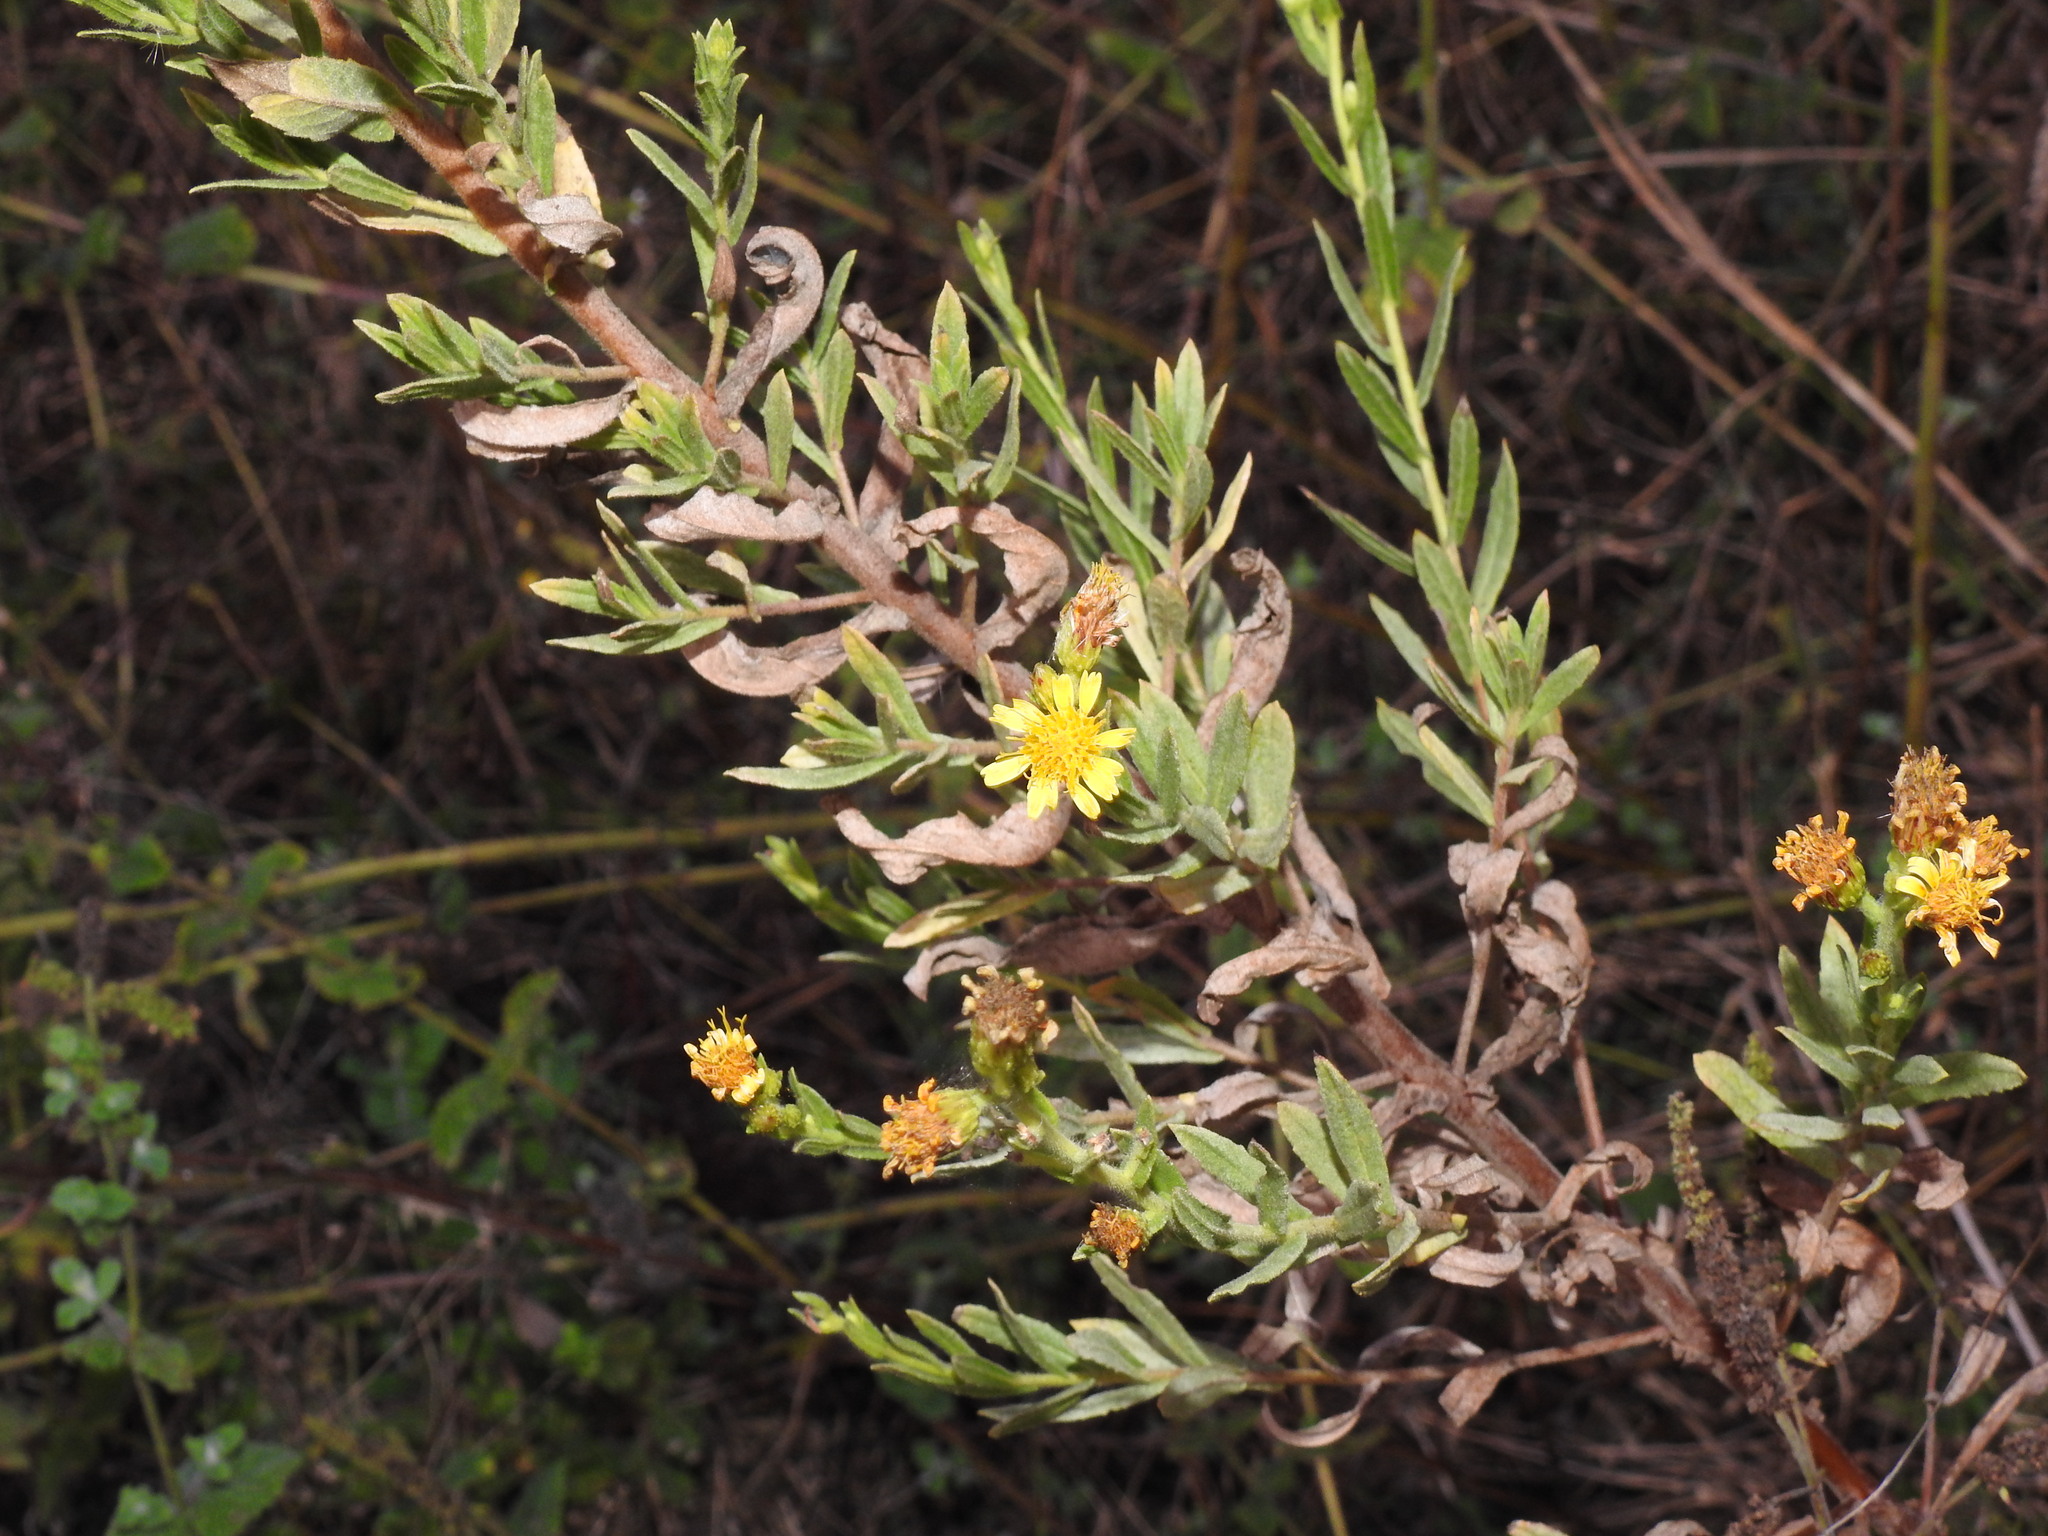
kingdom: Plantae
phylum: Tracheophyta
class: Magnoliopsida
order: Asterales
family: Asteraceae
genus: Dittrichia
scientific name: Dittrichia viscosa
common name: Woody fleabane
